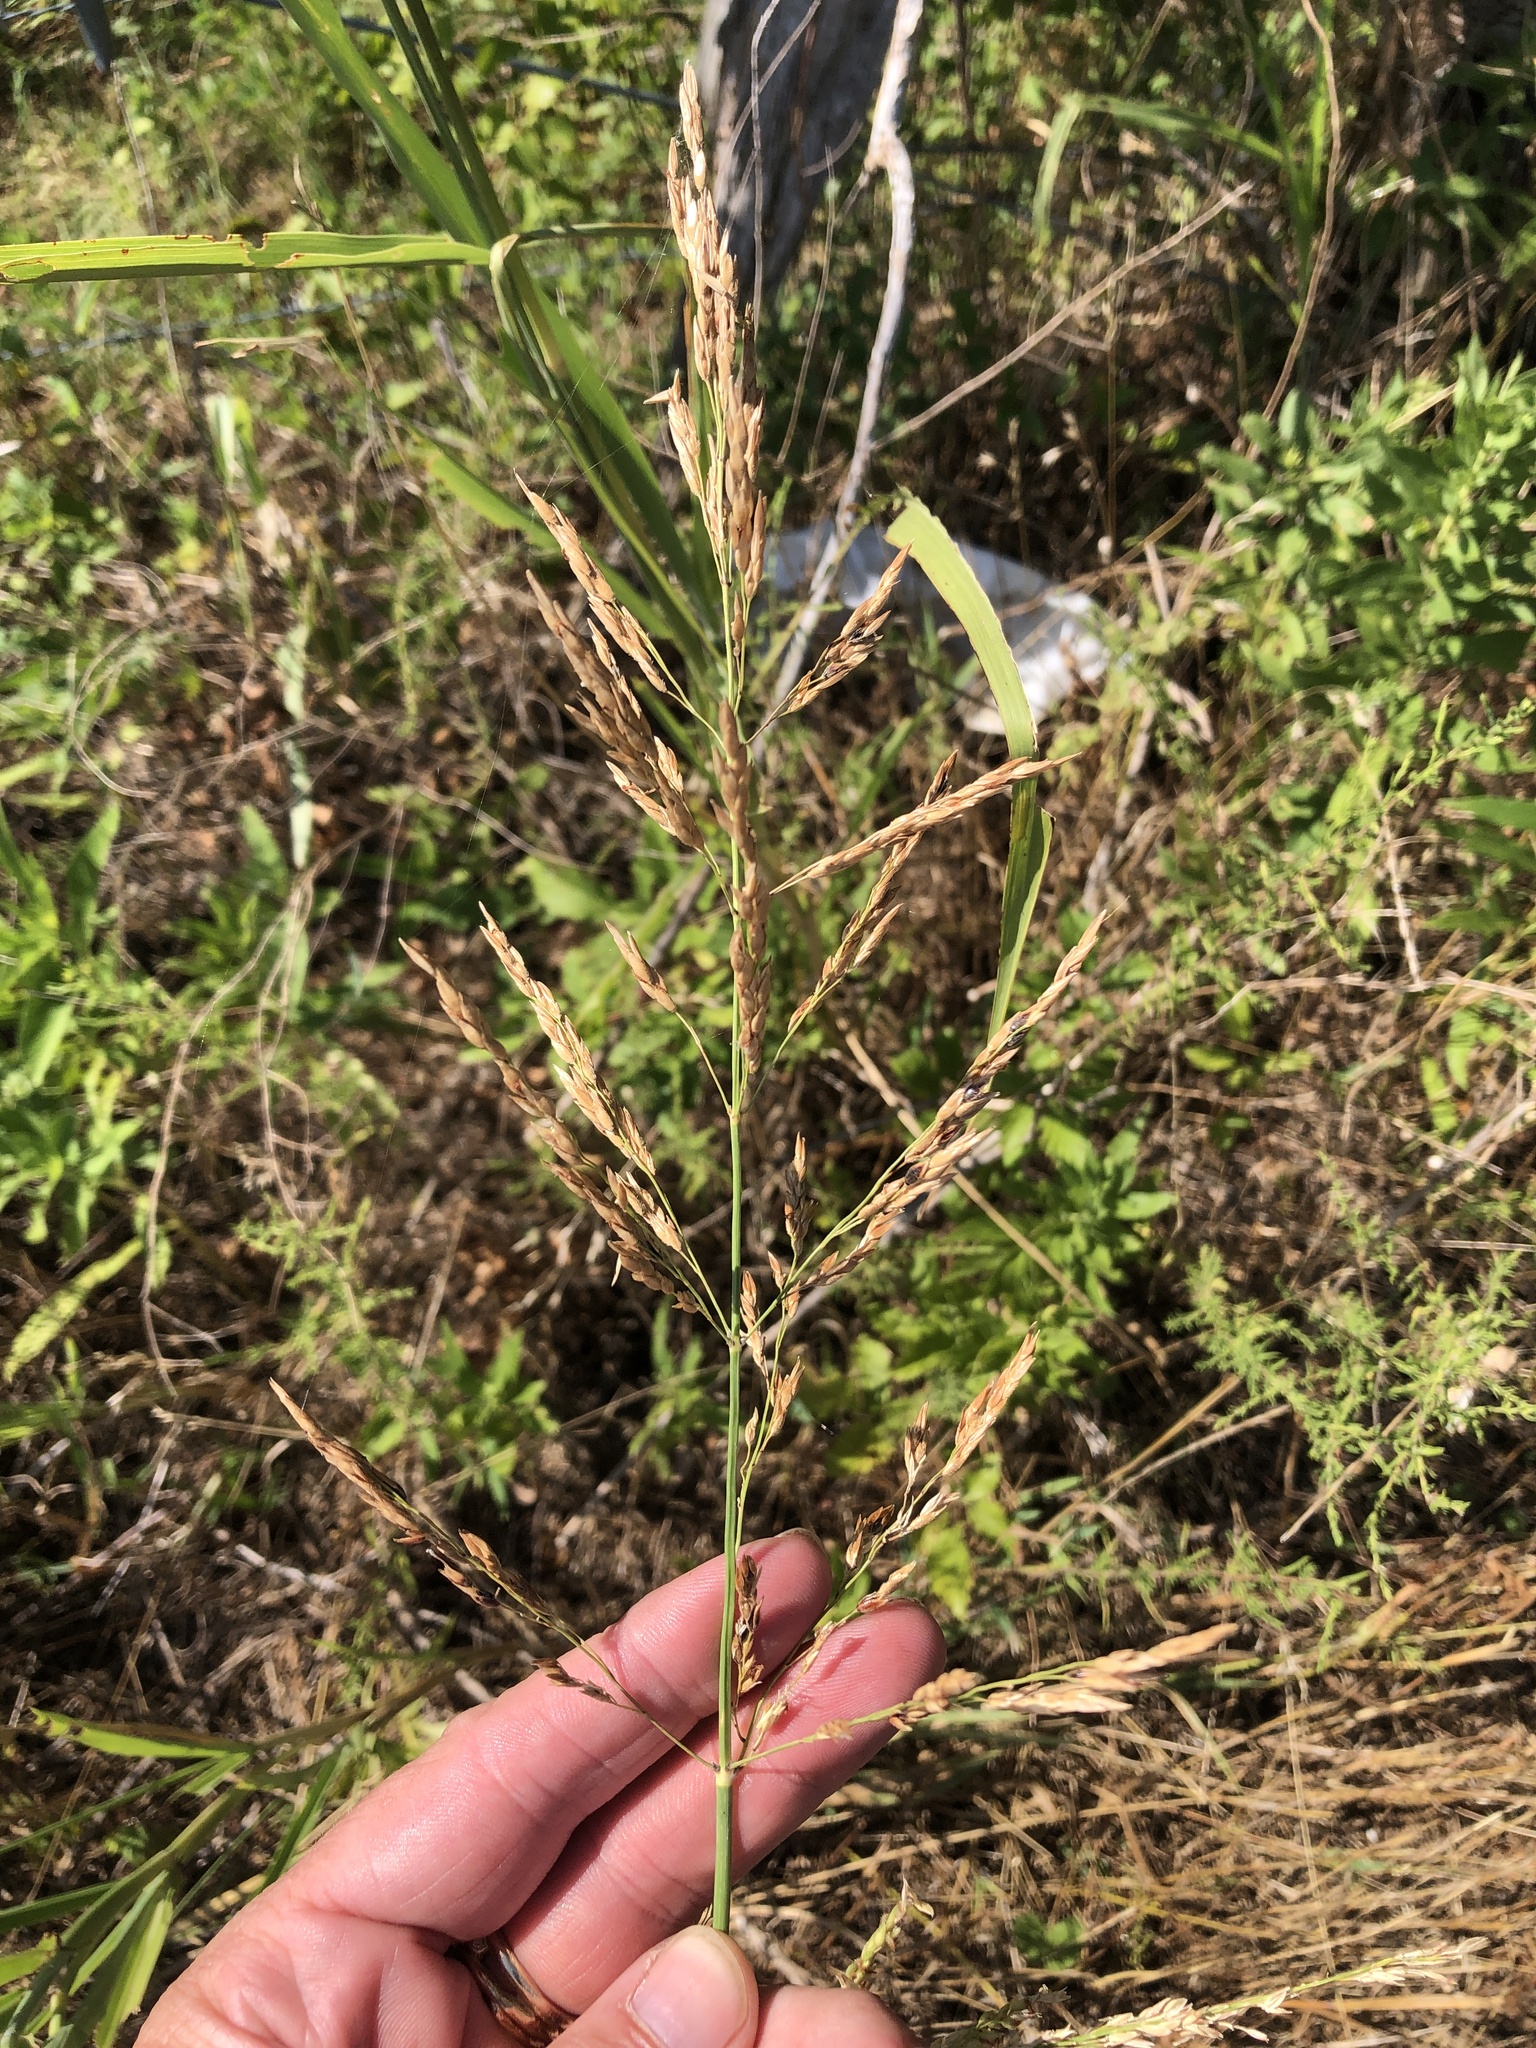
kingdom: Plantae
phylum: Tracheophyta
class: Liliopsida
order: Poales
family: Poaceae
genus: Sorghum
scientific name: Sorghum halepense
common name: Johnson-grass
